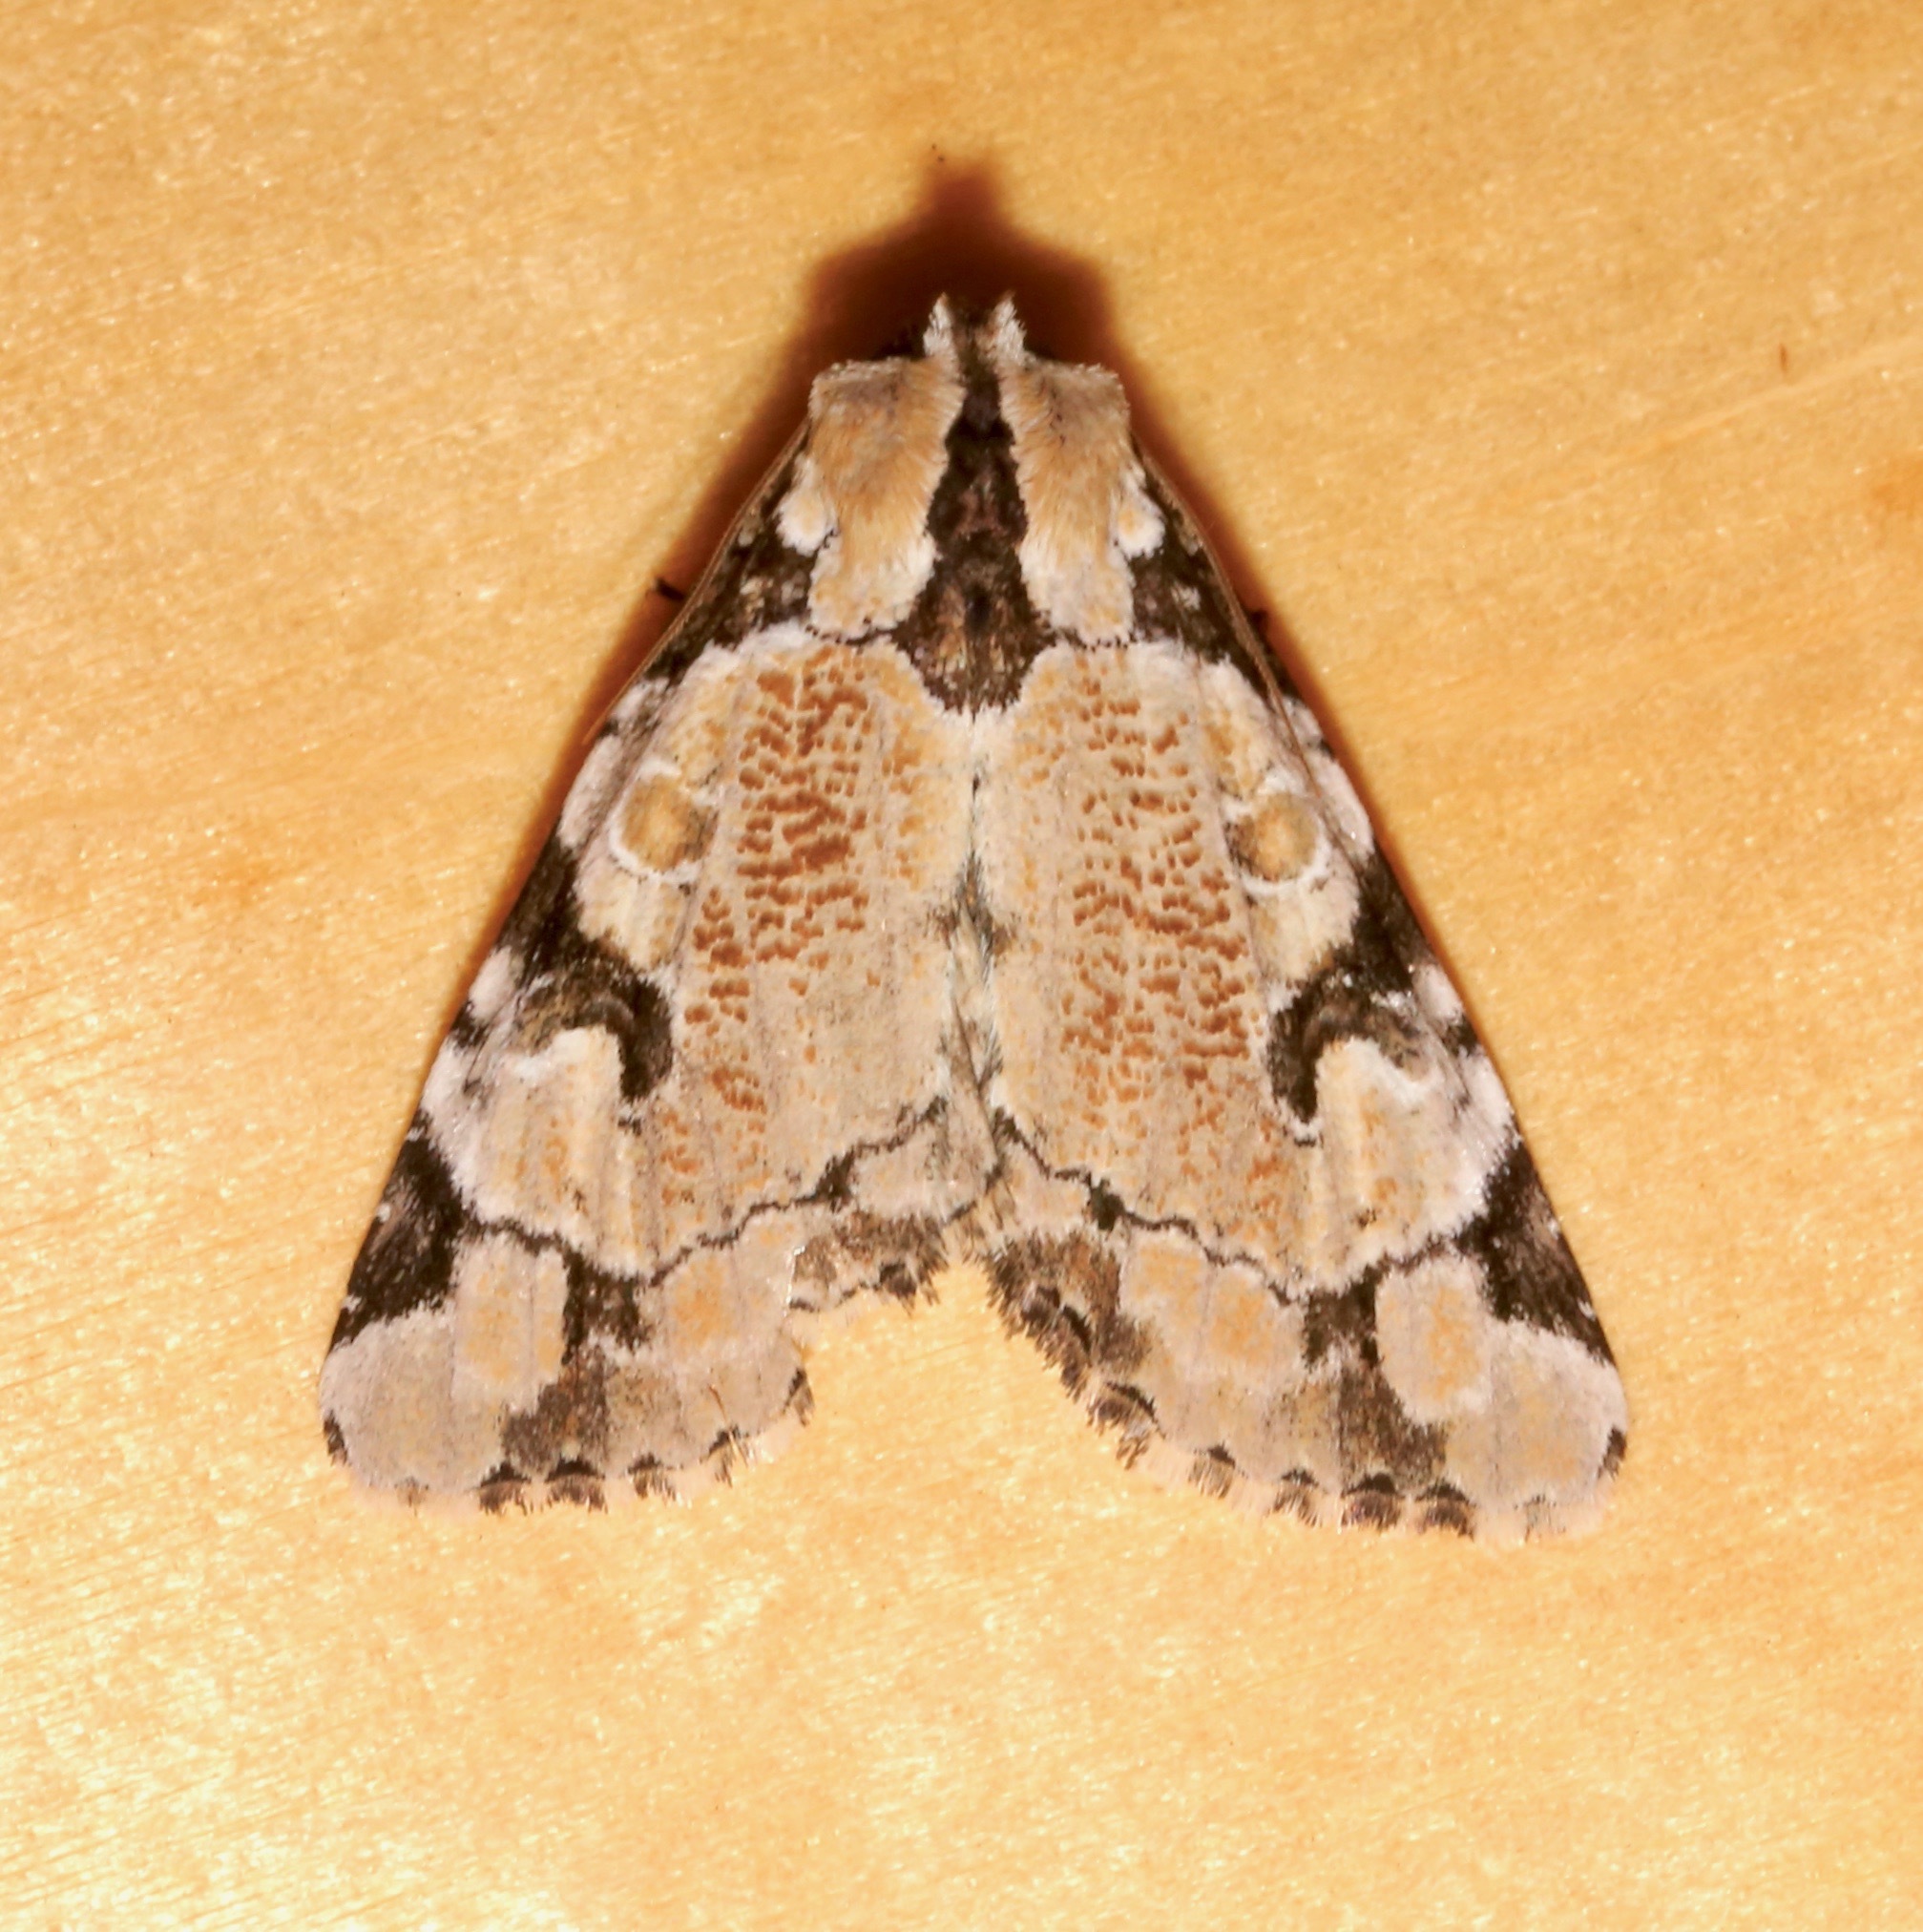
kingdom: Animalia
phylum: Arthropoda
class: Insecta
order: Lepidoptera
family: Noctuidae
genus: Stibaera
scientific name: Stibaera thyatiroides
